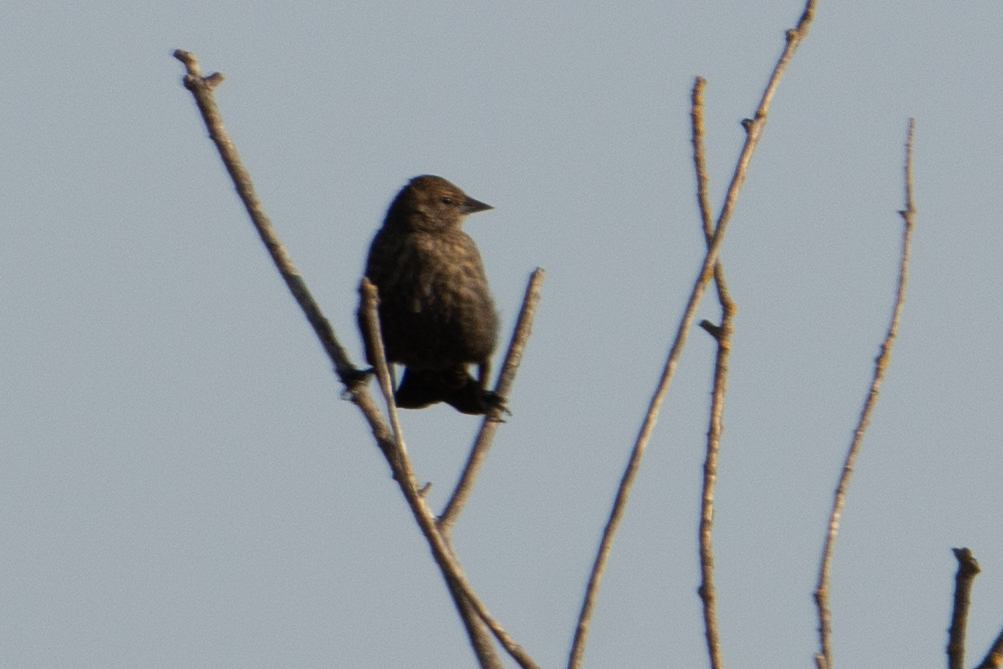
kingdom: Animalia
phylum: Chordata
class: Aves
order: Passeriformes
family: Icteridae
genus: Agelaius
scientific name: Agelaius
